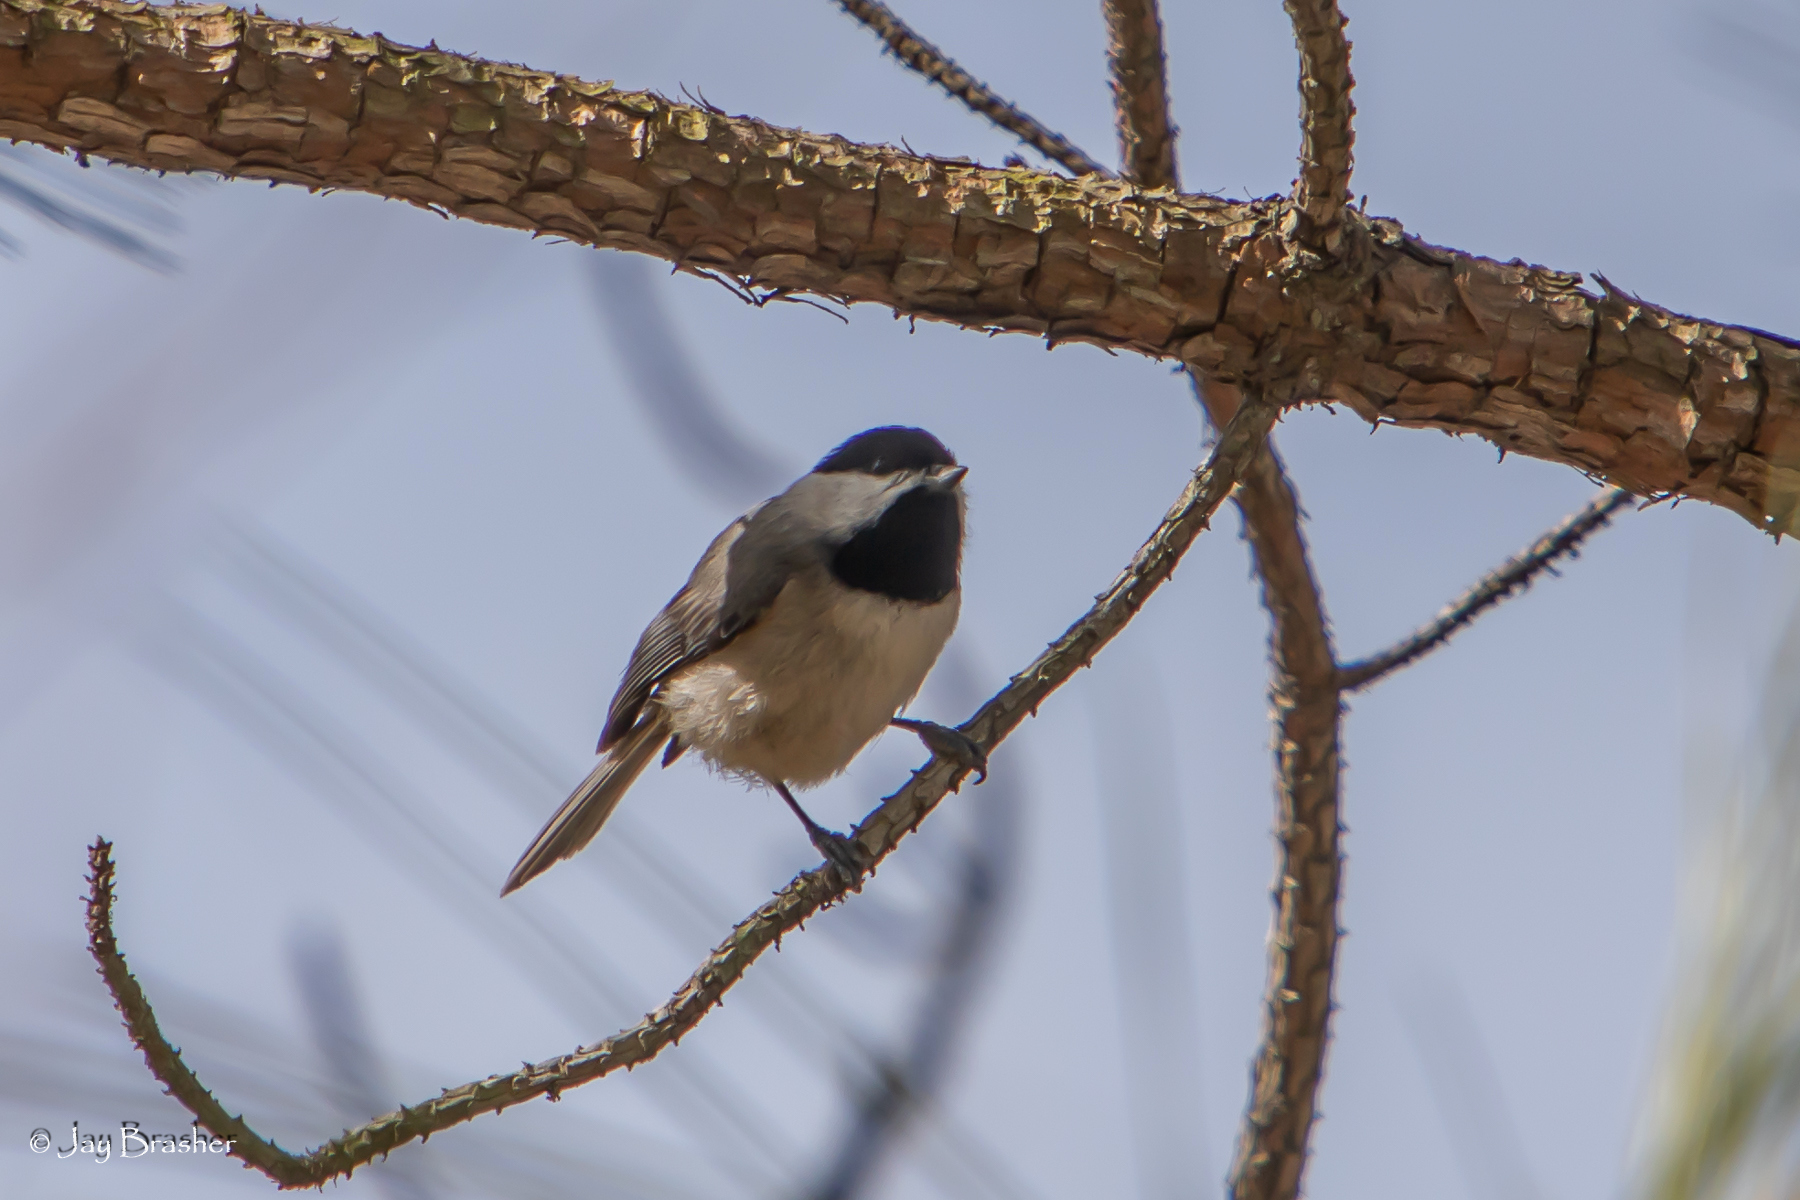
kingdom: Animalia
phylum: Chordata
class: Aves
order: Passeriformes
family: Paridae
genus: Poecile
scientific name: Poecile carolinensis
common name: Carolina chickadee
